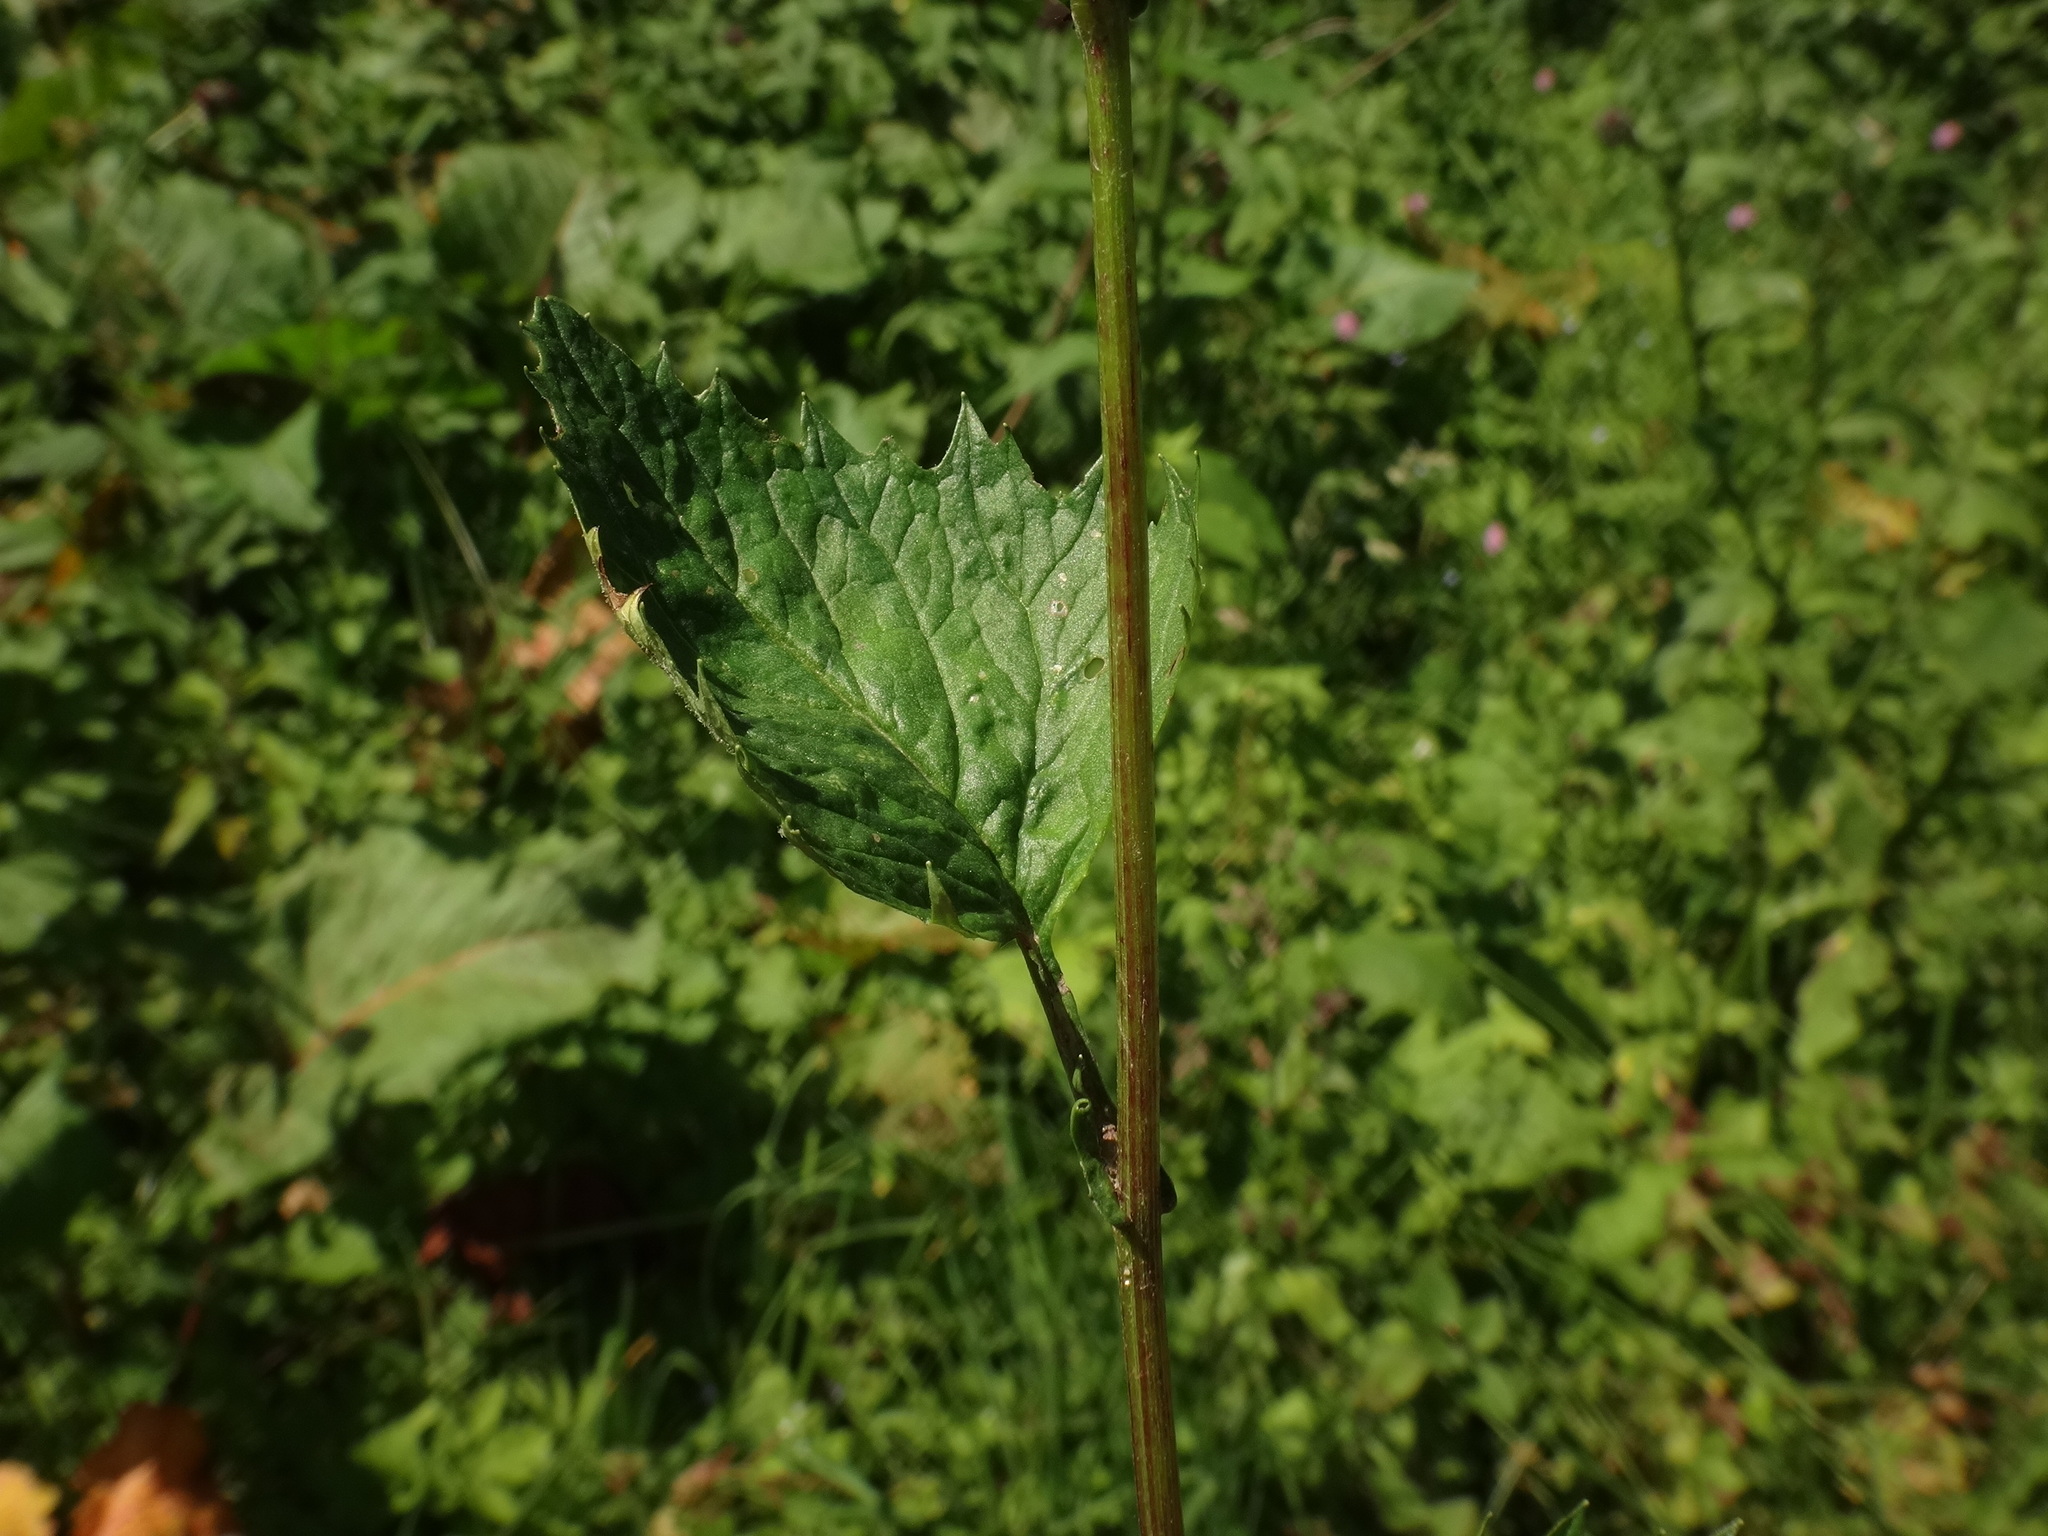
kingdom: Plantae
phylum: Tracheophyta
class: Magnoliopsida
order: Asterales
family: Asteraceae
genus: Jacobaea
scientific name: Jacobaea subalpina
